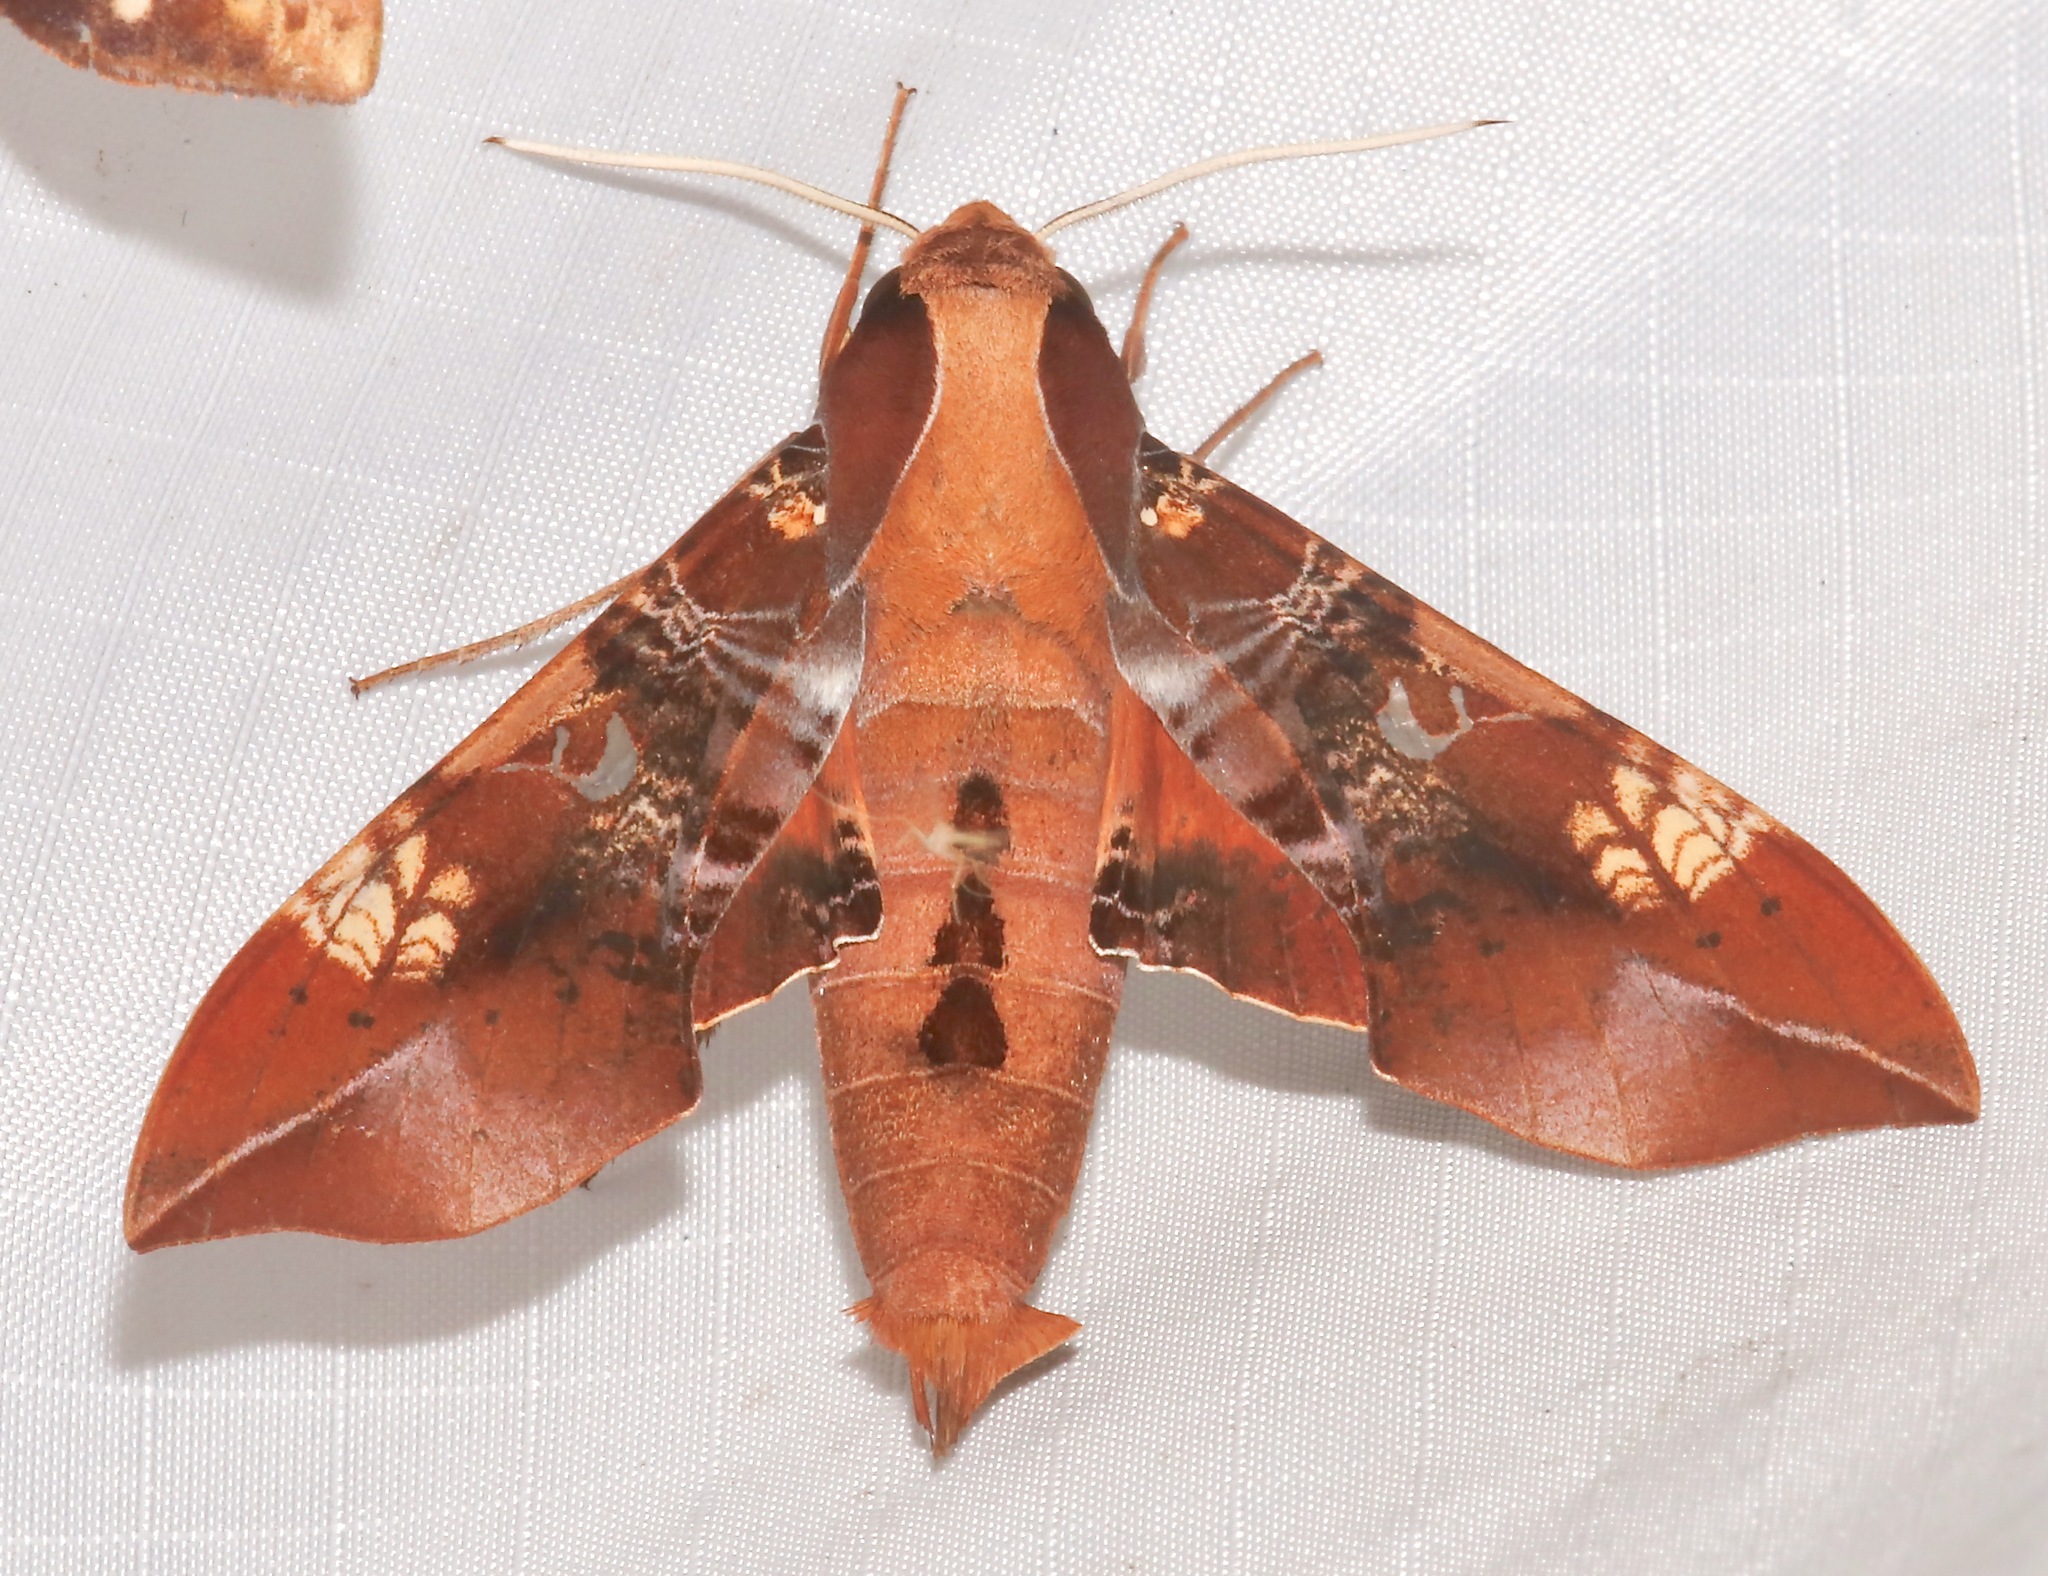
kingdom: Animalia
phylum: Arthropoda
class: Insecta
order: Lepidoptera
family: Sphingidae
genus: Callionima
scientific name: Callionima inuus
